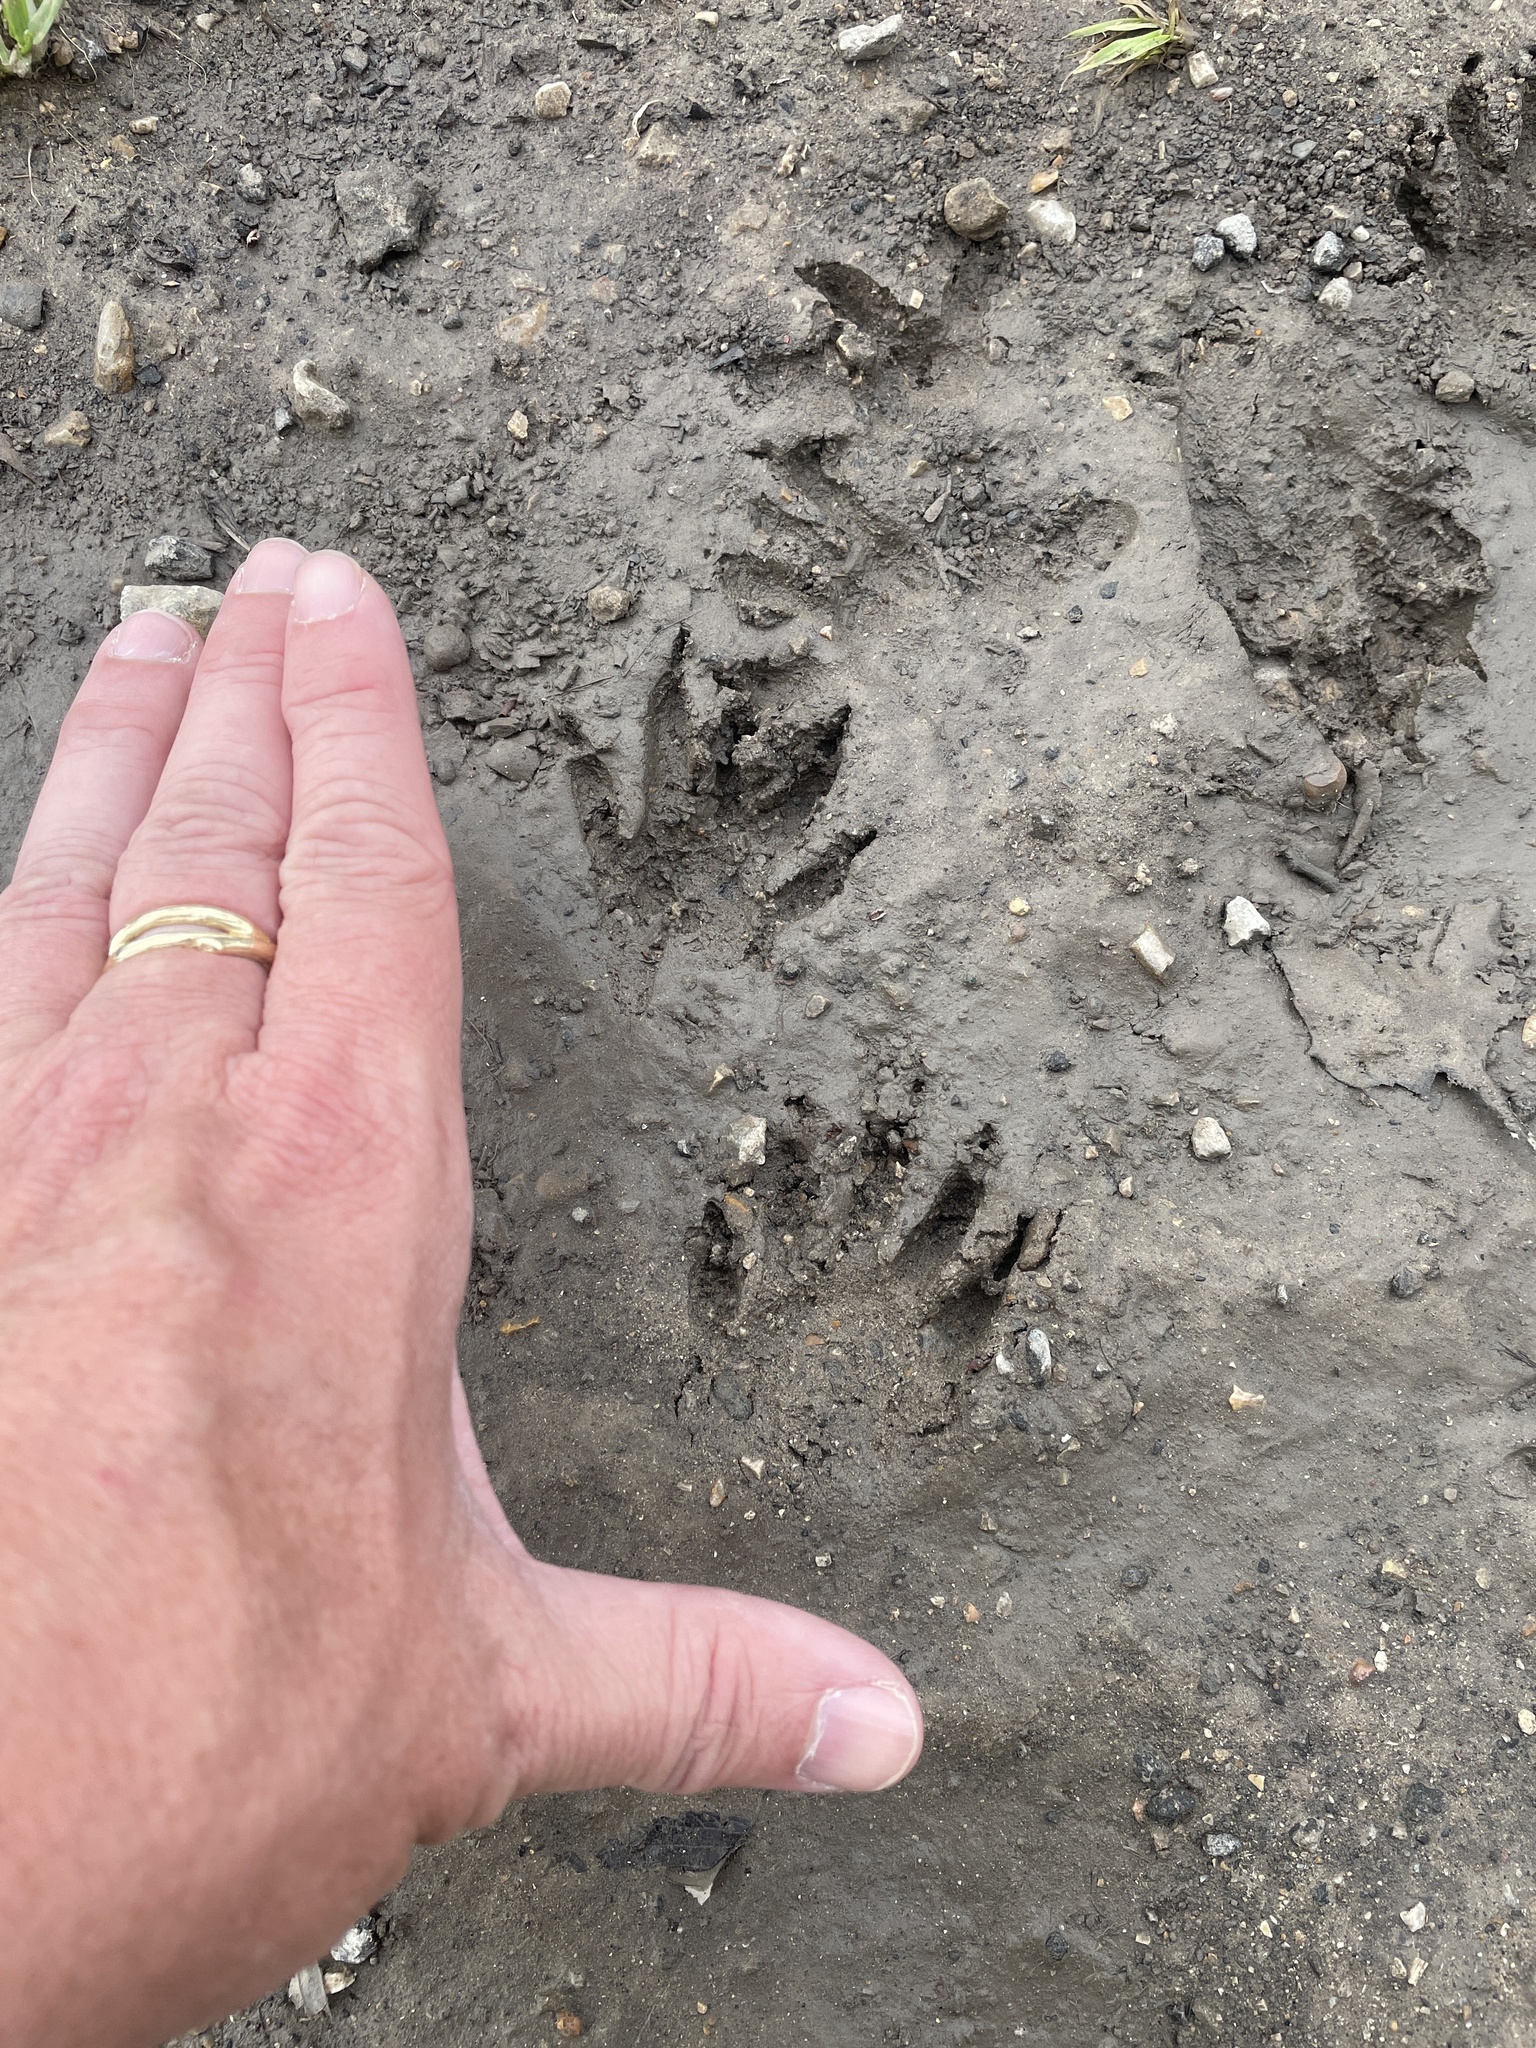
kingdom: Animalia
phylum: Chordata
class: Mammalia
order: Carnivora
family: Procyonidae
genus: Procyon
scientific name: Procyon lotor
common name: Raccoon
